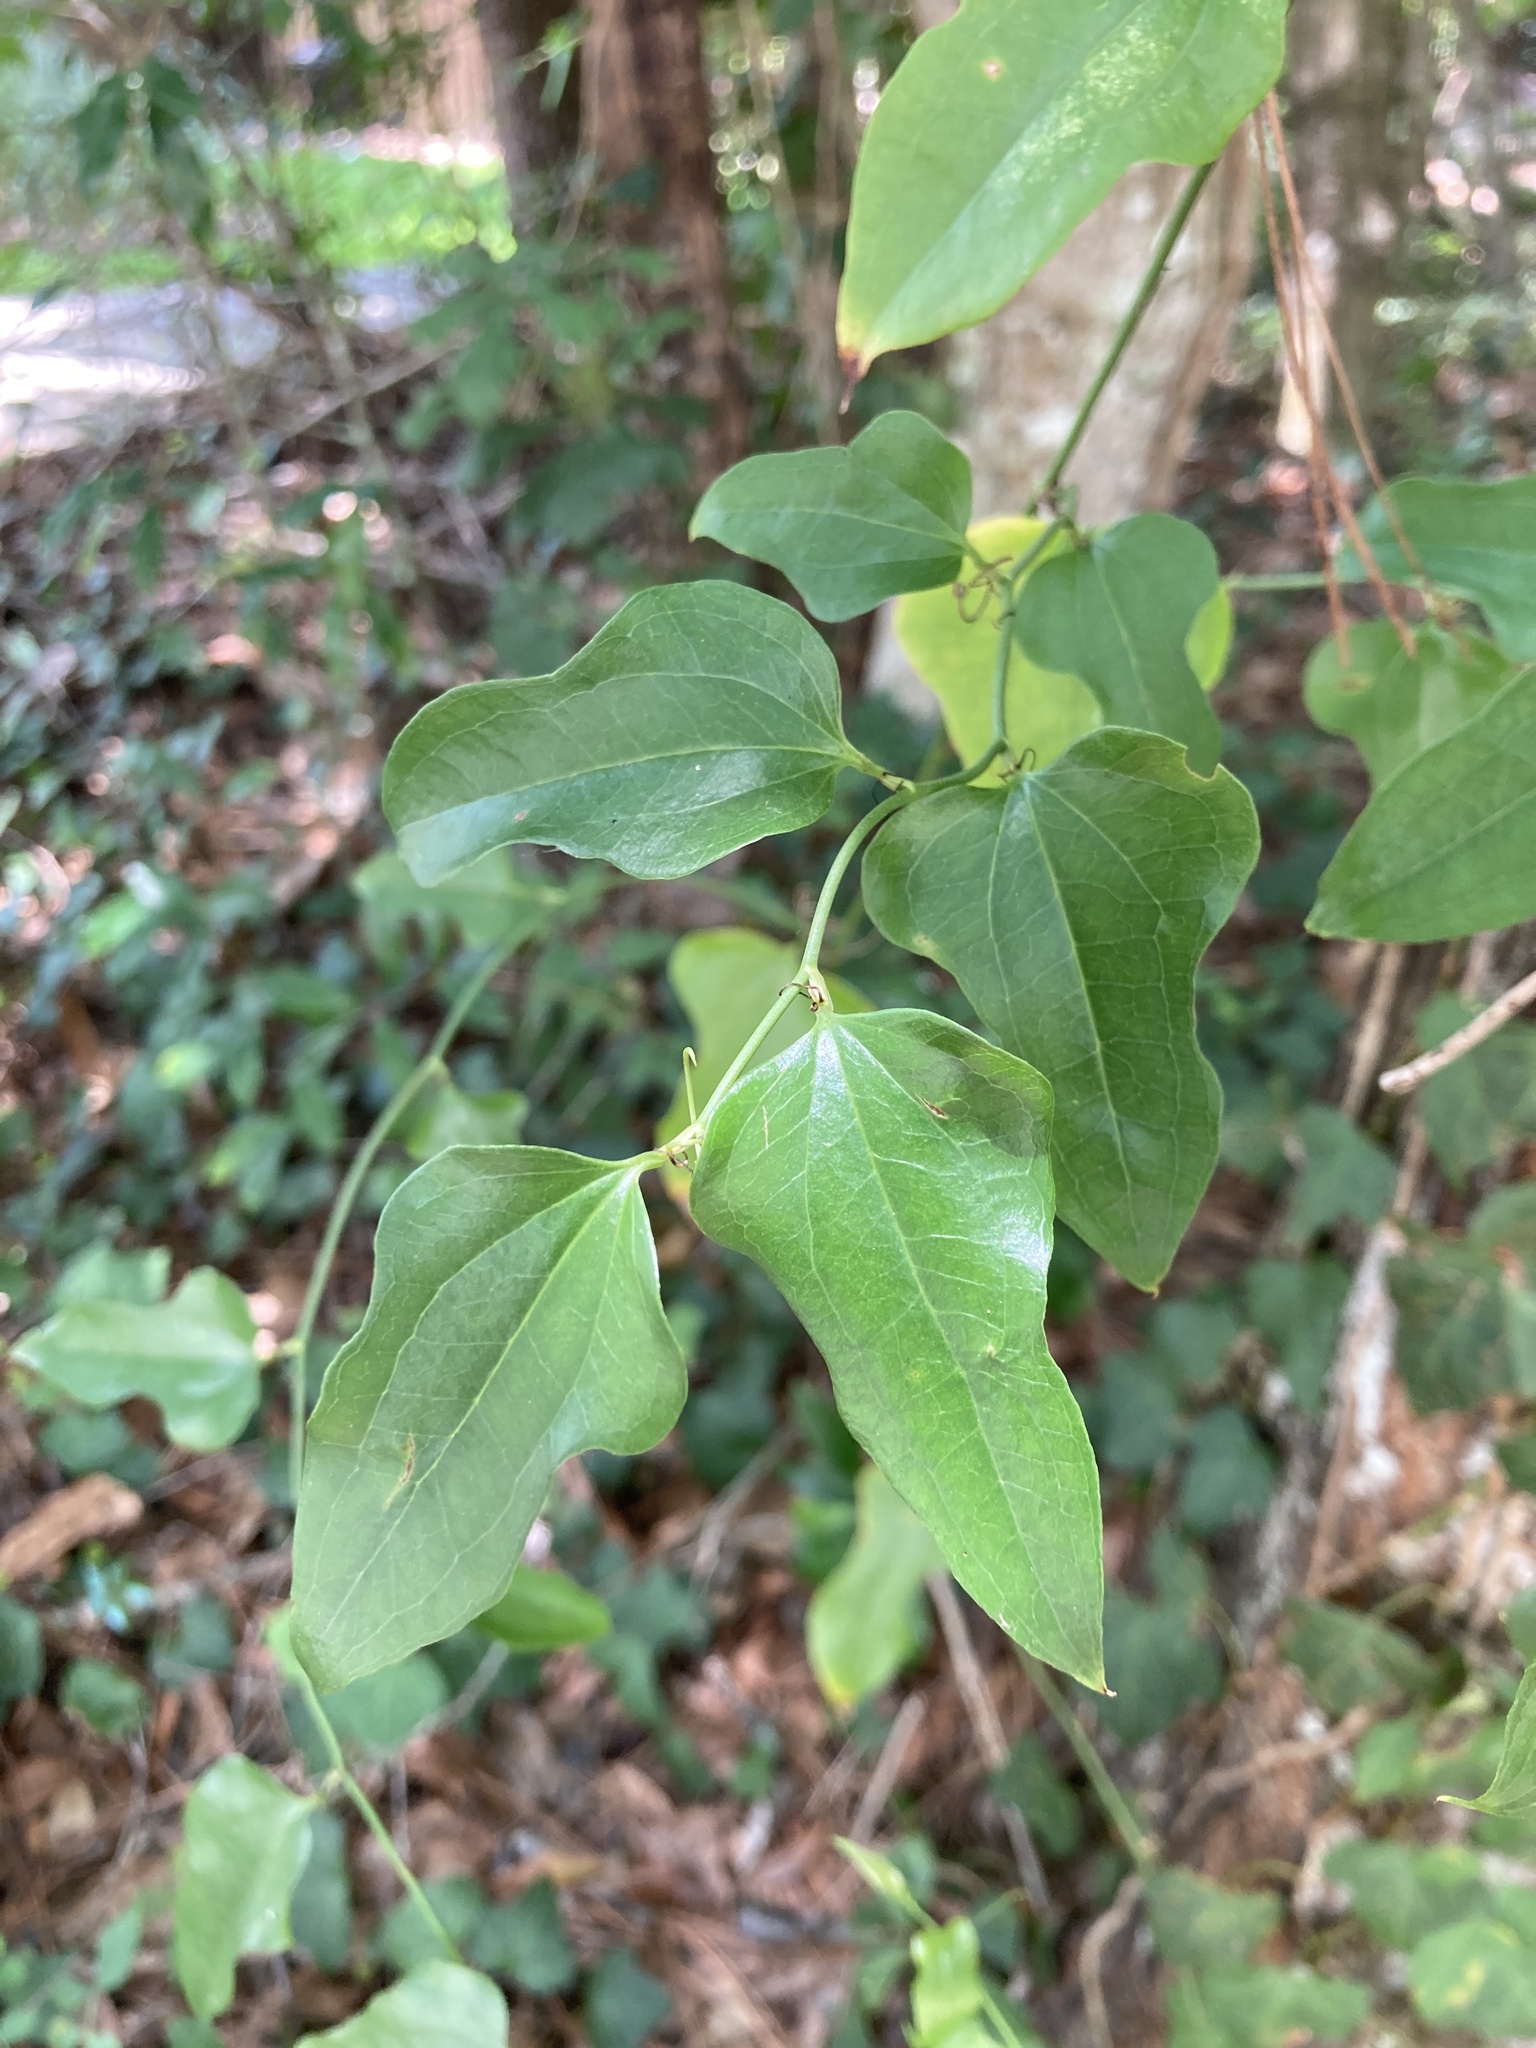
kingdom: Plantae
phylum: Tracheophyta
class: Liliopsida
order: Liliales
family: Smilacaceae
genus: Smilax
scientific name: Smilax tamnoides
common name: Hellfetter
